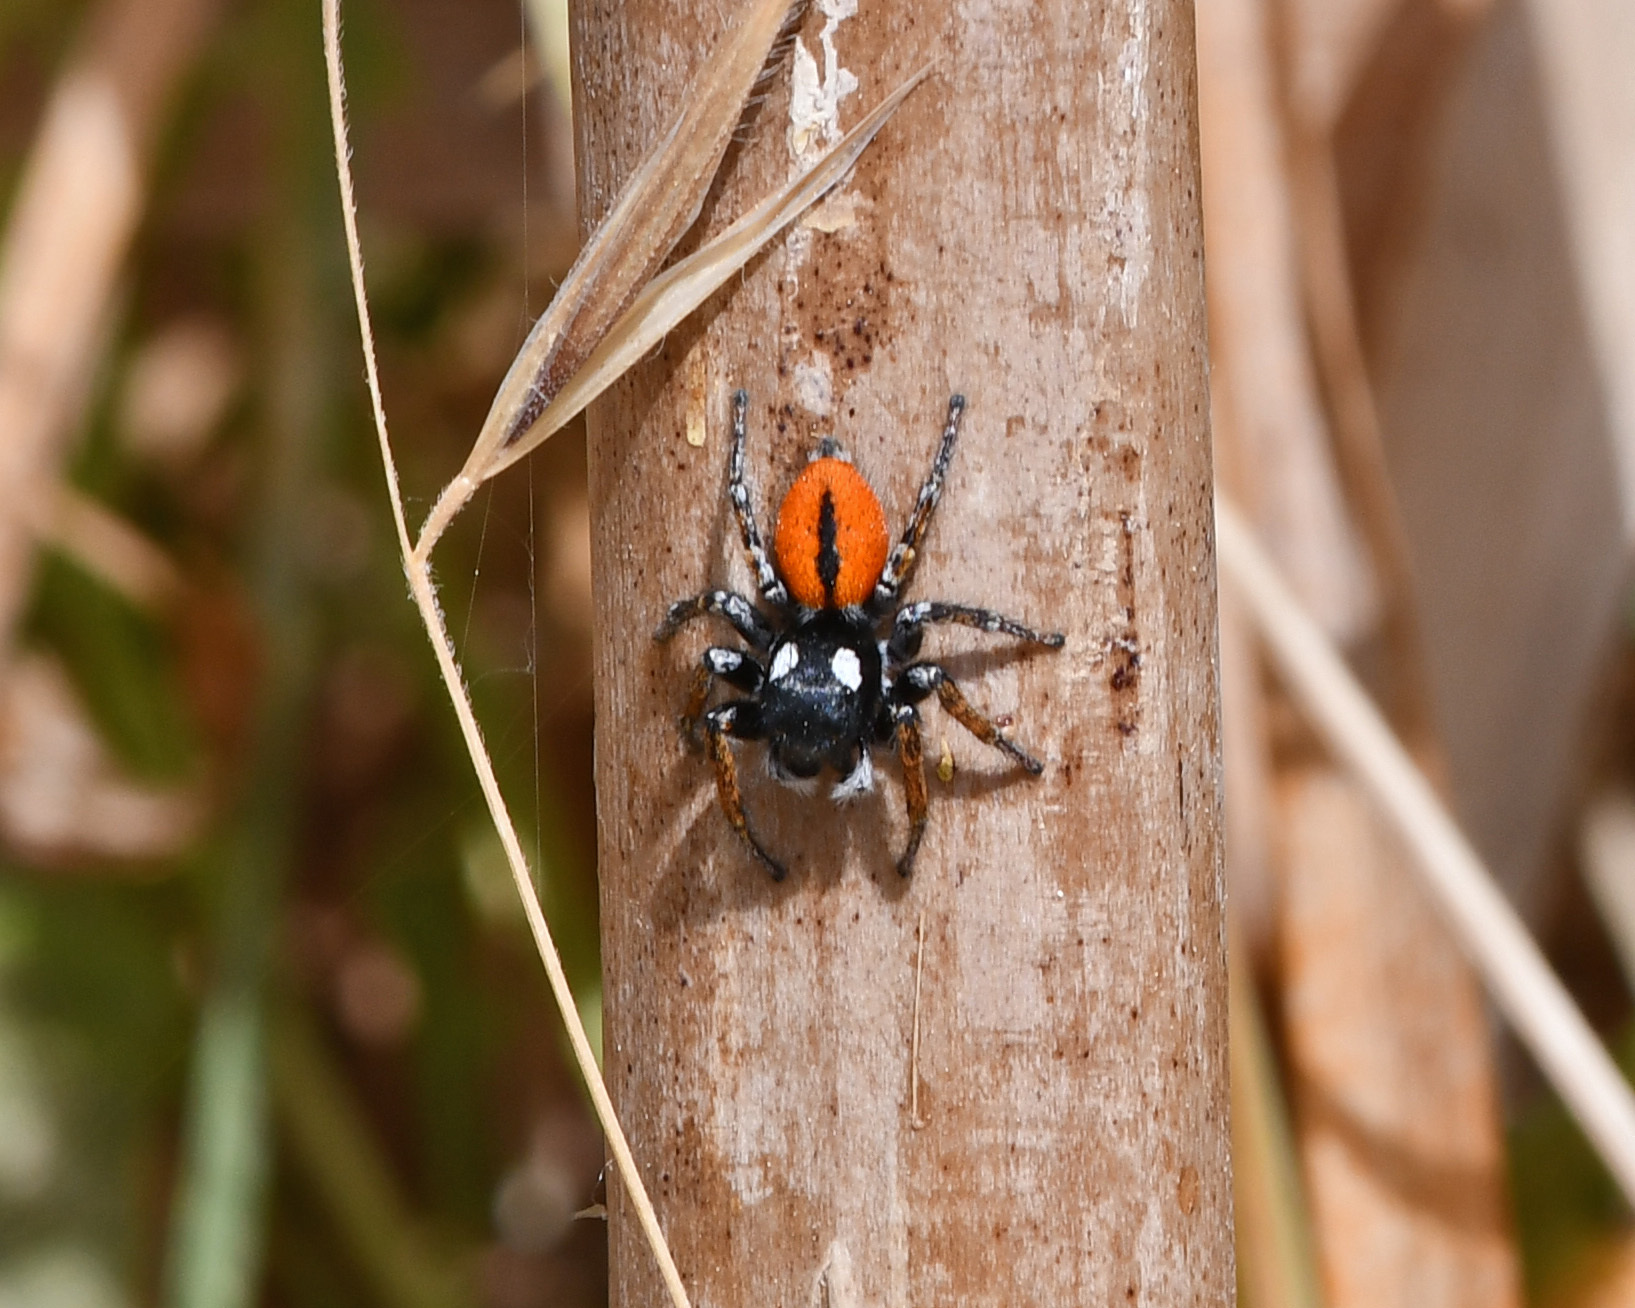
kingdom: Animalia
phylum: Arthropoda
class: Arachnida
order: Araneae
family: Salticidae
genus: Philaeus
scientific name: Philaeus chrysops
